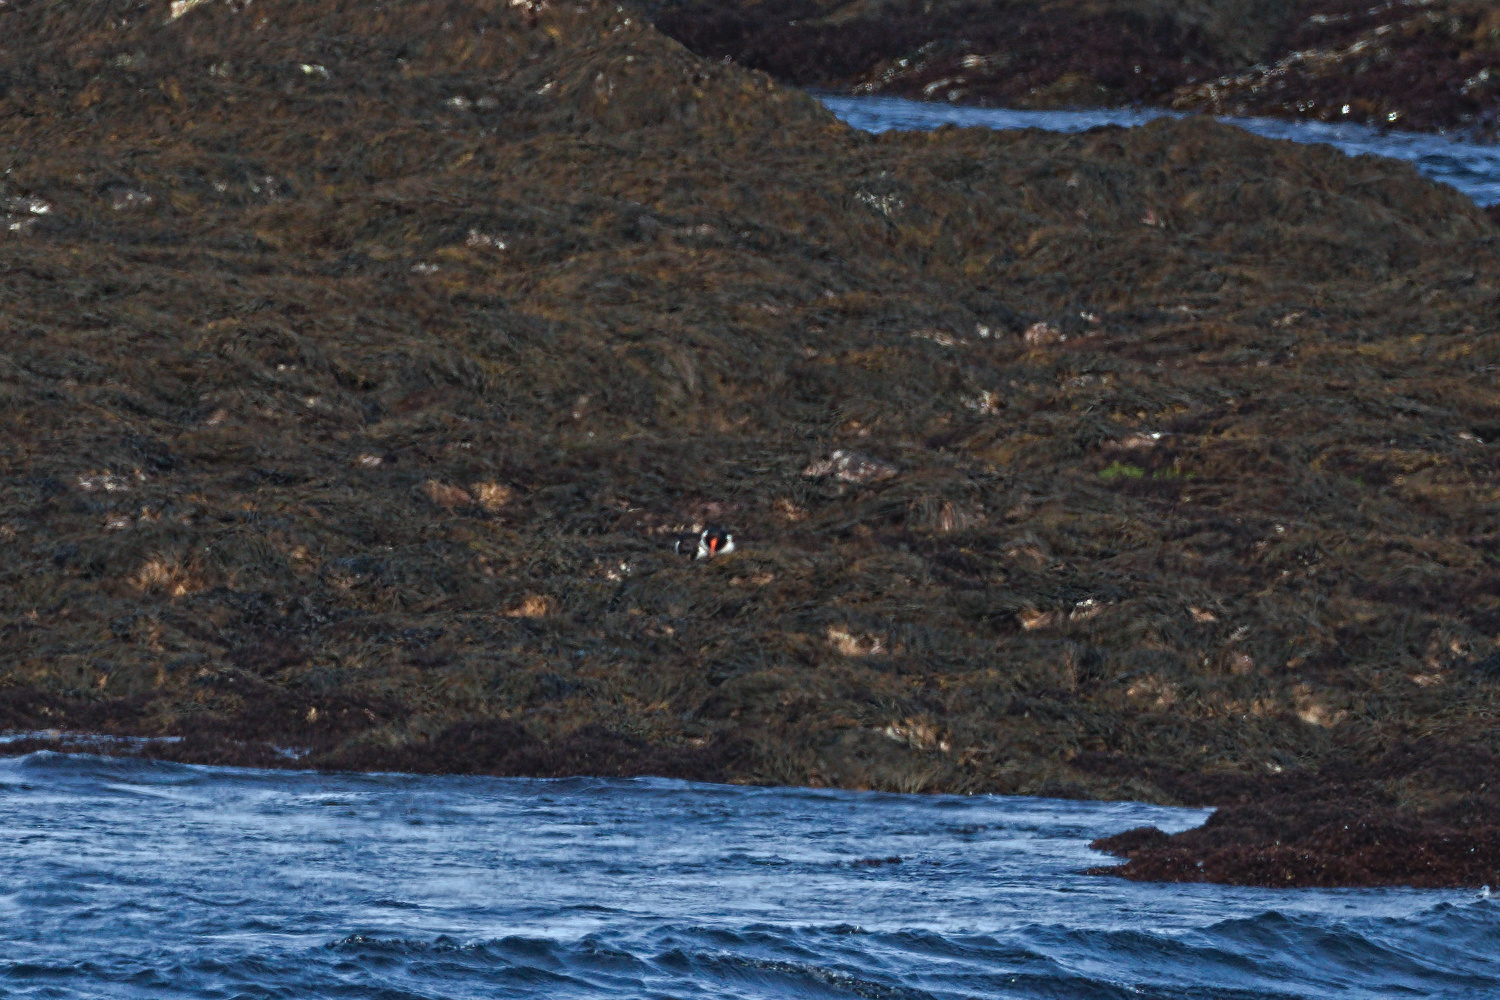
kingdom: Animalia
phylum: Chordata
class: Aves
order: Charadriiformes
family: Haematopodidae
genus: Haematopus
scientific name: Haematopus ostralegus
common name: Eurasian oystercatcher
